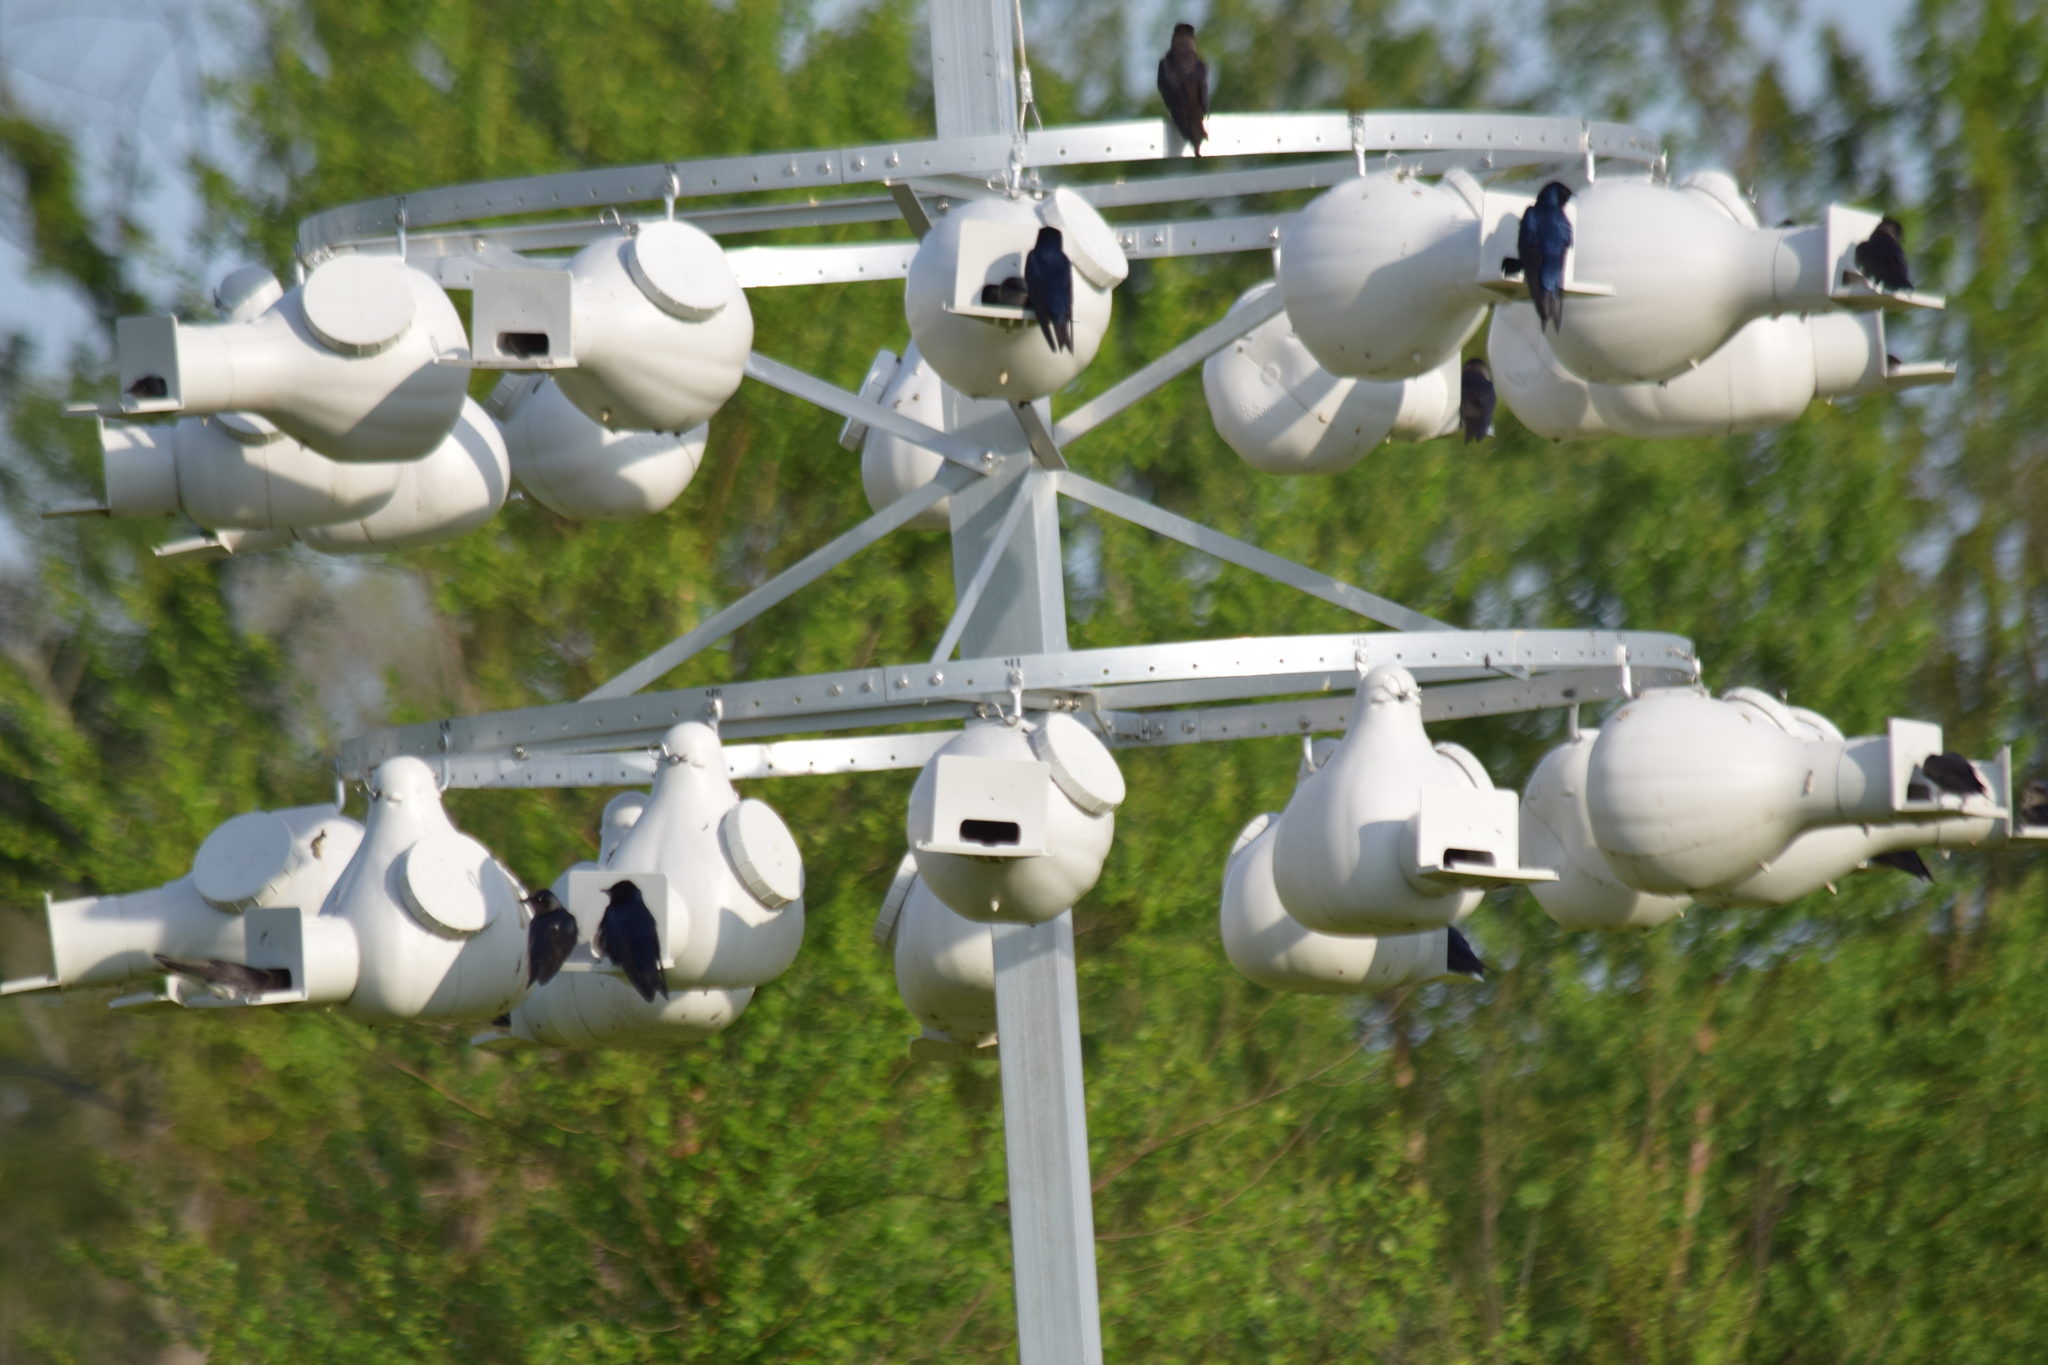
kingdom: Animalia
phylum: Chordata
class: Aves
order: Passeriformes
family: Hirundinidae
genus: Progne
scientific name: Progne subis
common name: Purple martin
